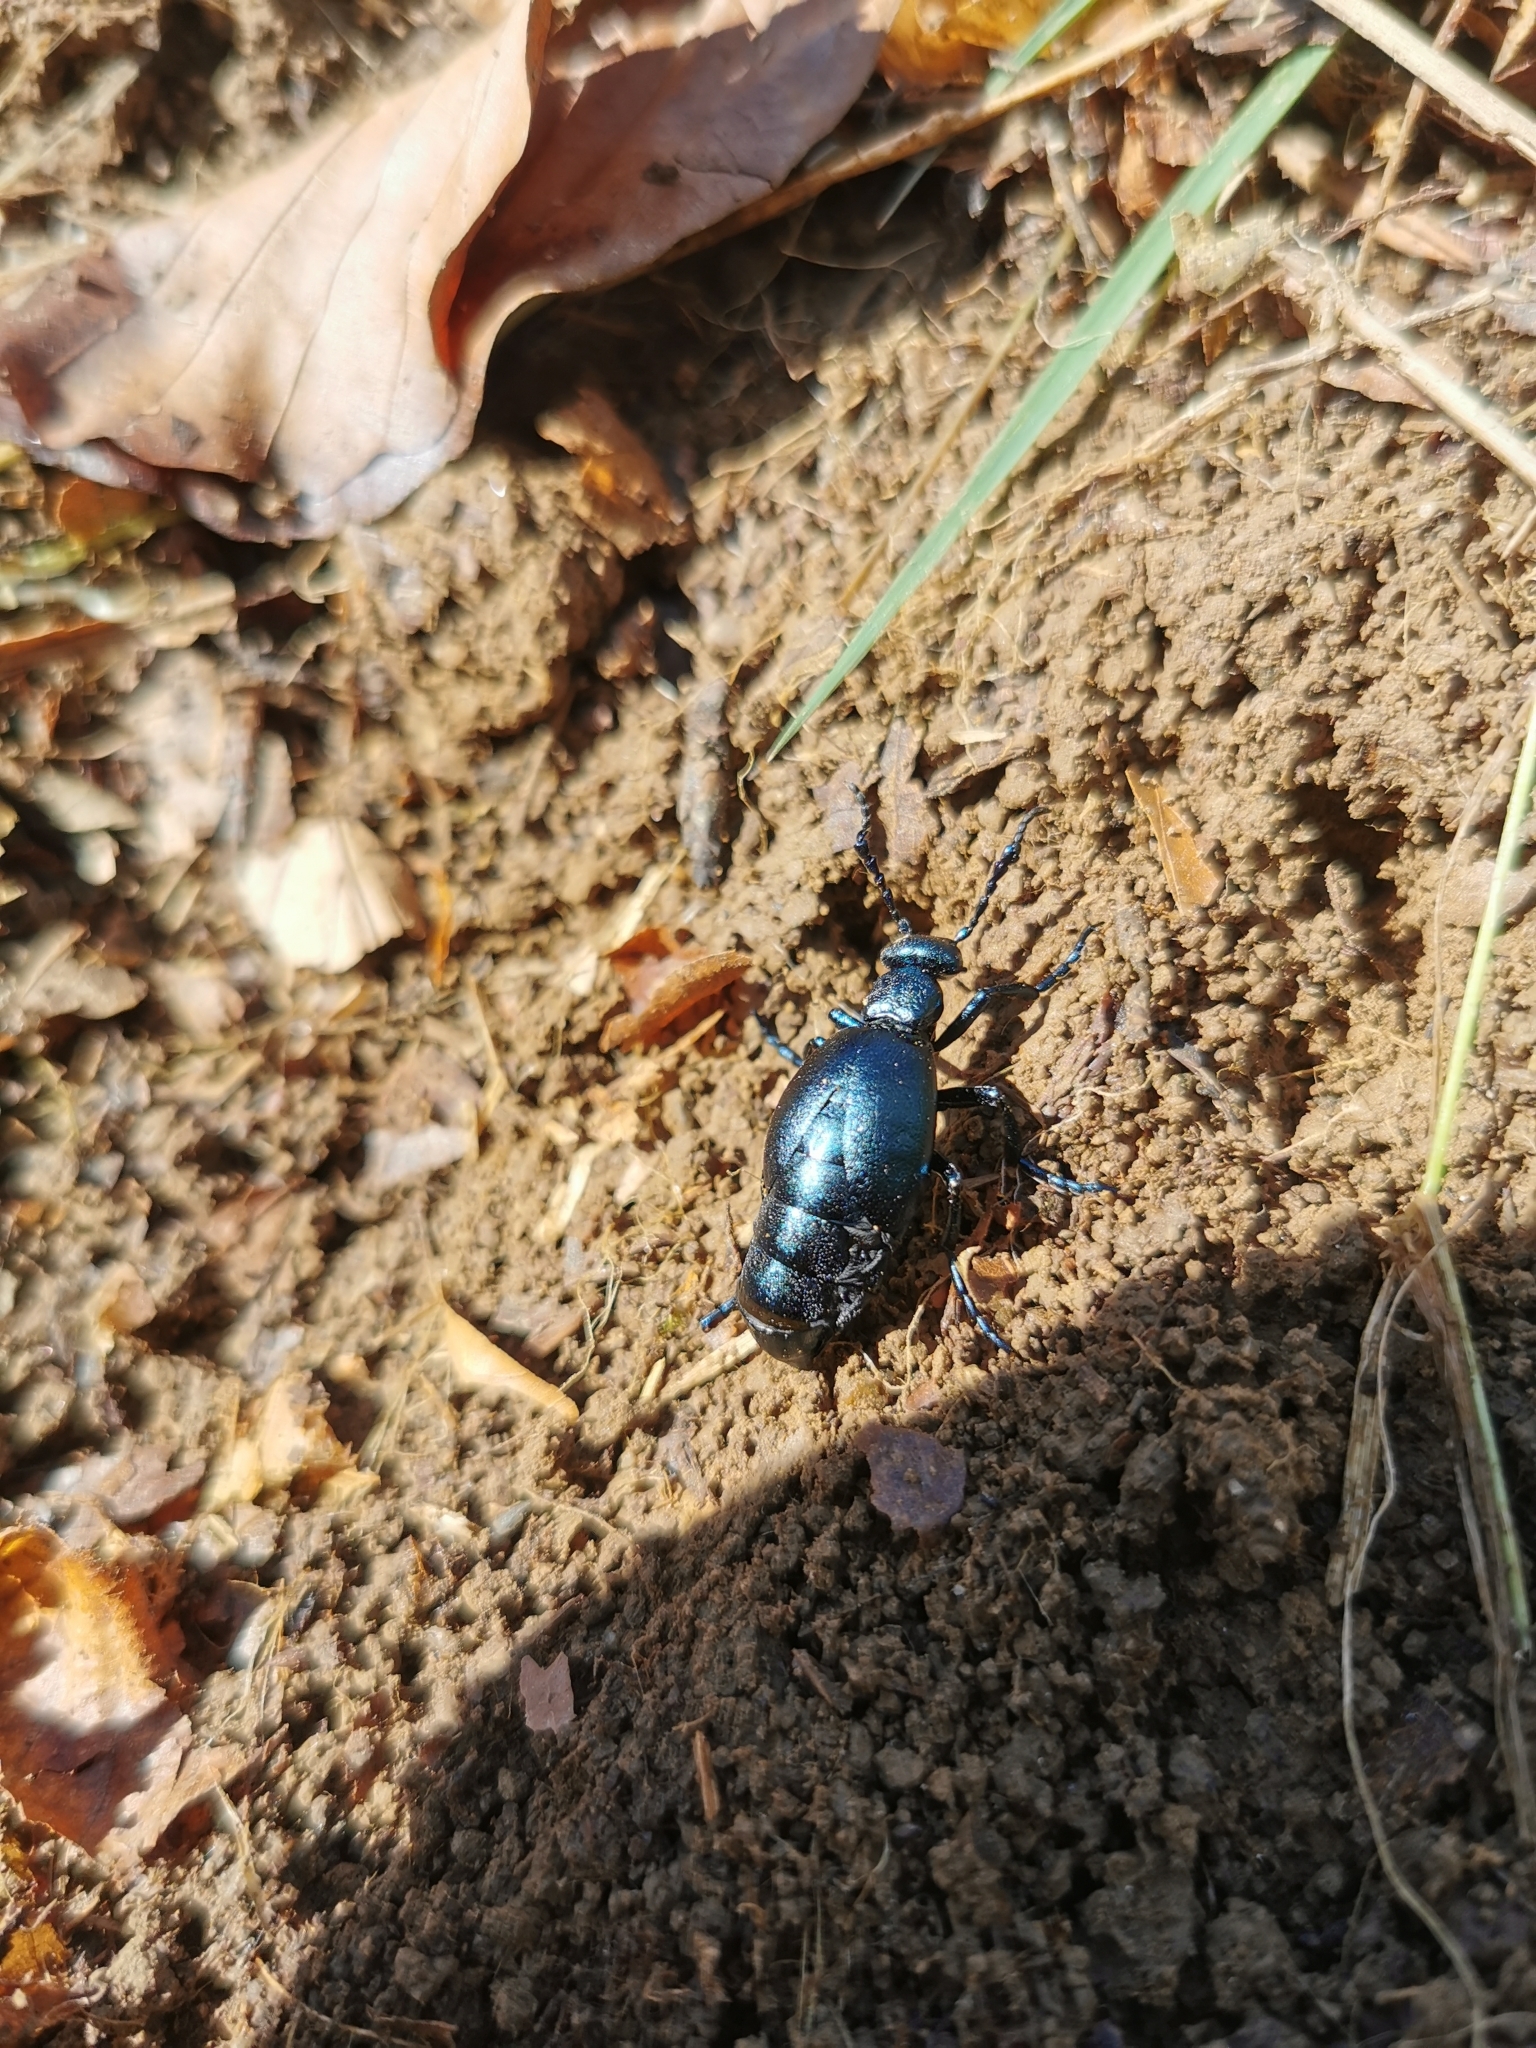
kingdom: Animalia
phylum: Arthropoda
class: Insecta
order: Coleoptera
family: Meloidae
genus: Meloe
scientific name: Meloe violaceus
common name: Violet oil-beetle
